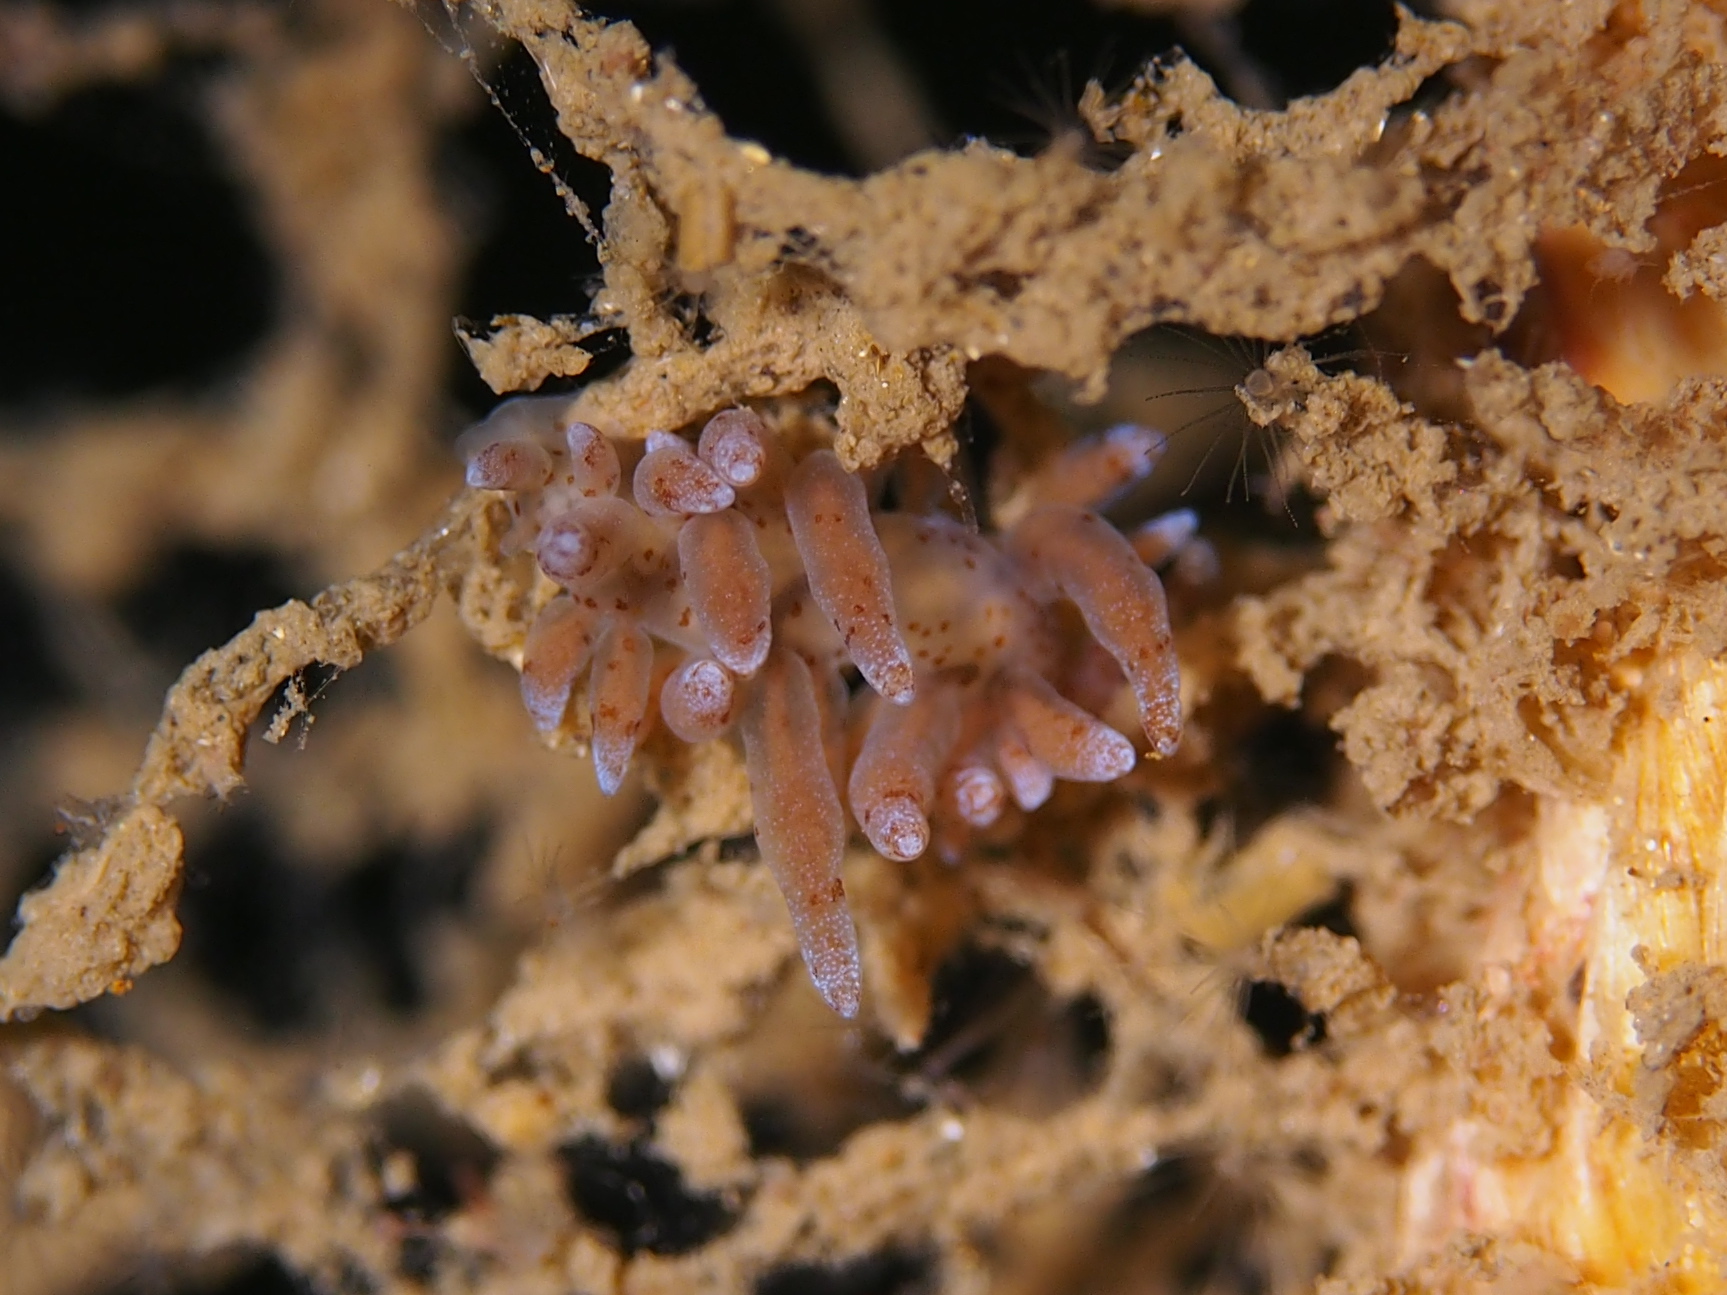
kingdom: Animalia
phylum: Mollusca
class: Gastropoda
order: Nudibranchia
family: Eubranchidae
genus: Eubranchus
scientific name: Eubranchus rupium
